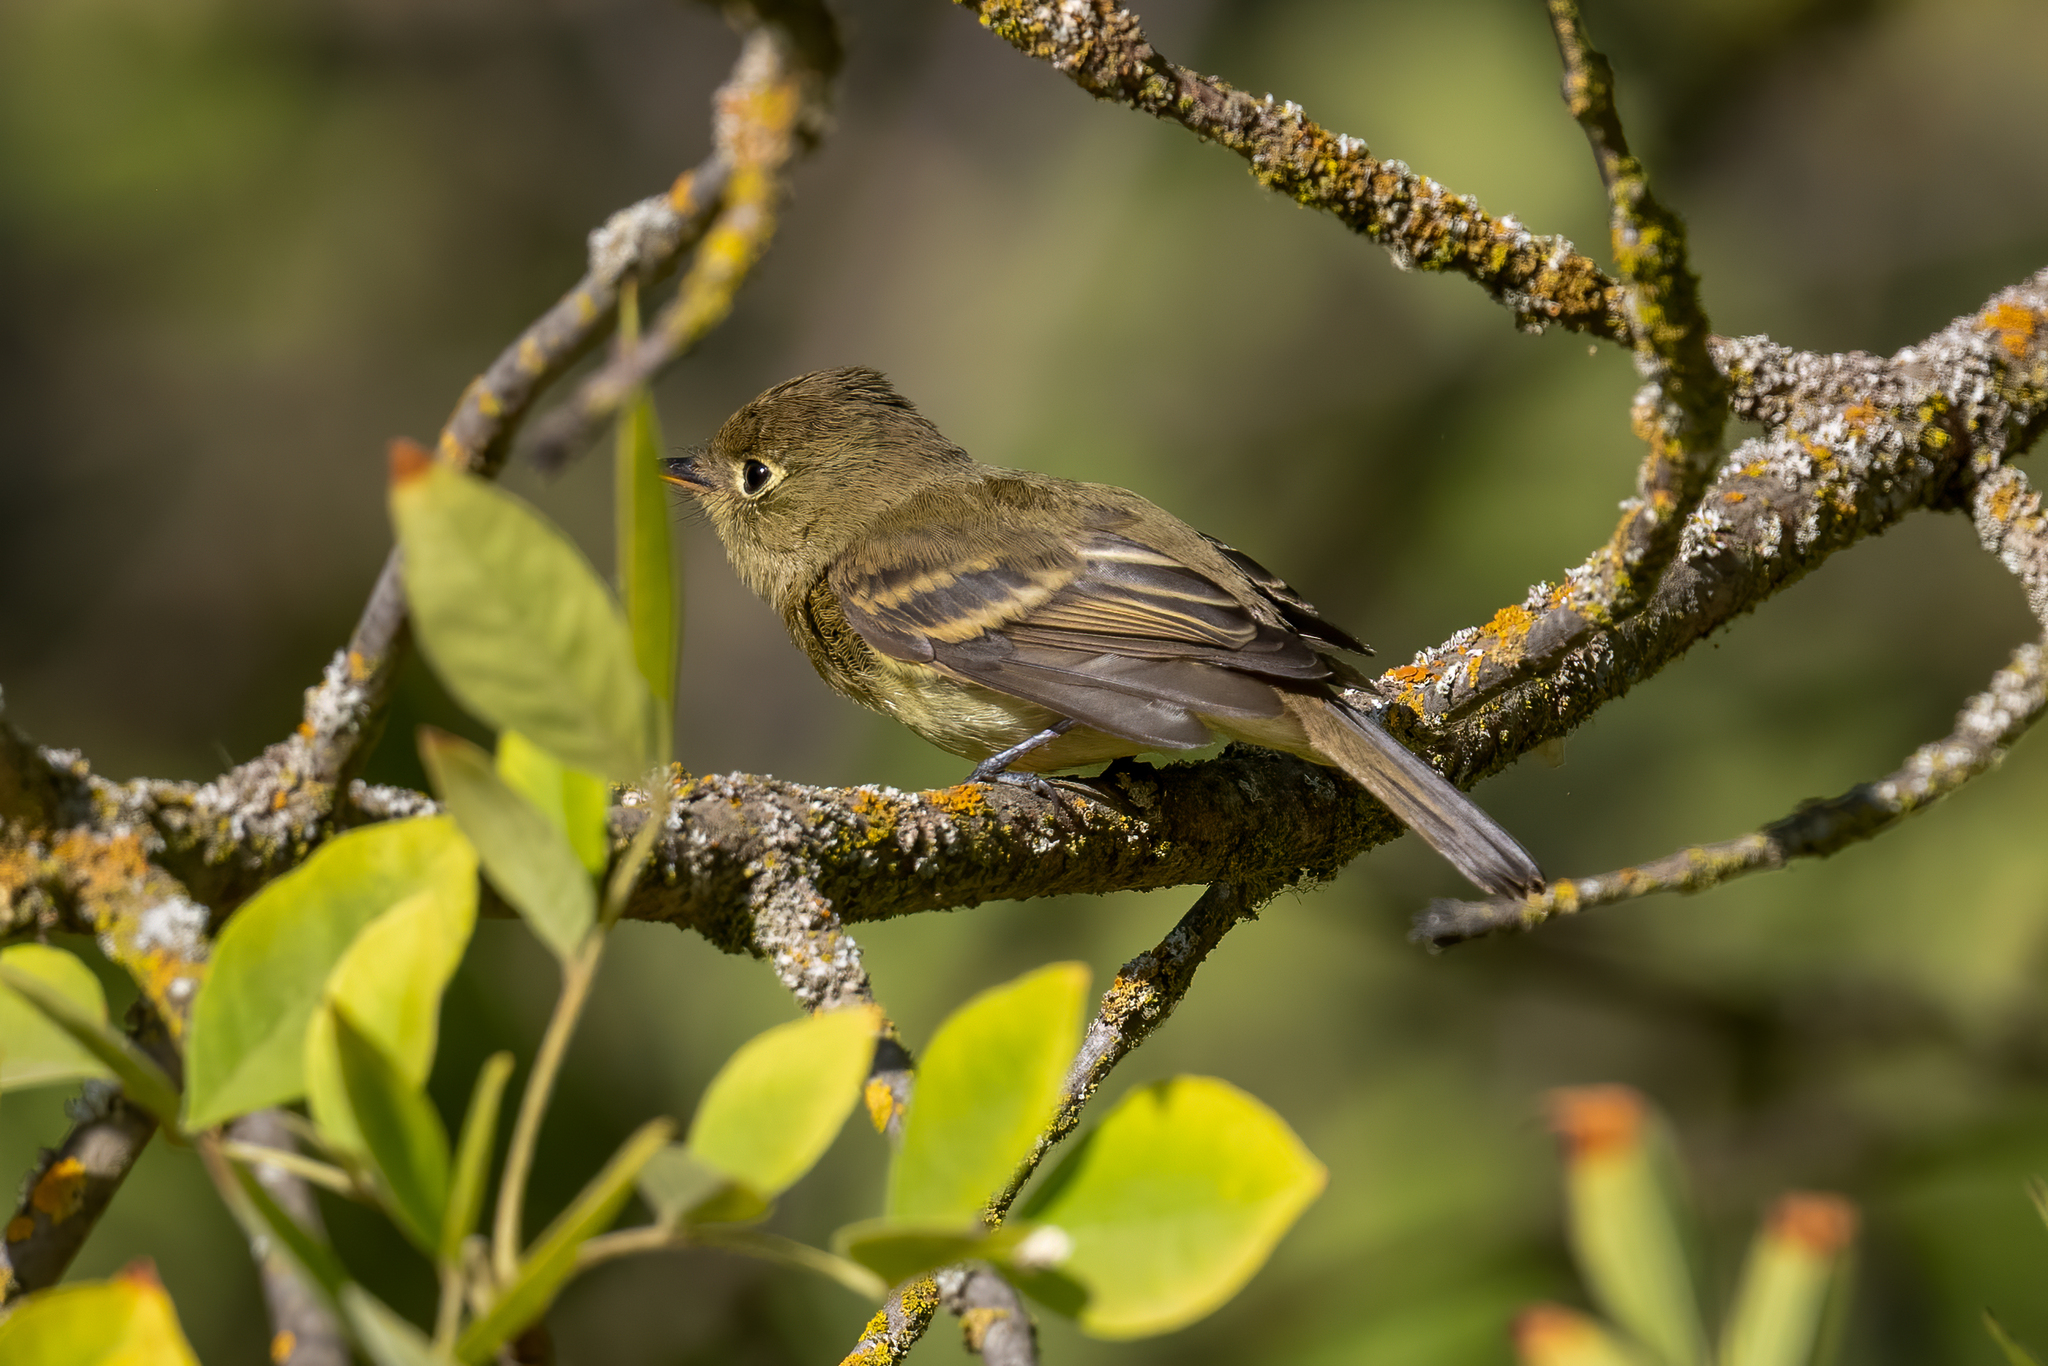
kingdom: Animalia
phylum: Chordata
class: Aves
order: Passeriformes
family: Tyrannidae
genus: Empidonax
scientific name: Empidonax difficilis
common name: Pacific-slope flycatcher
